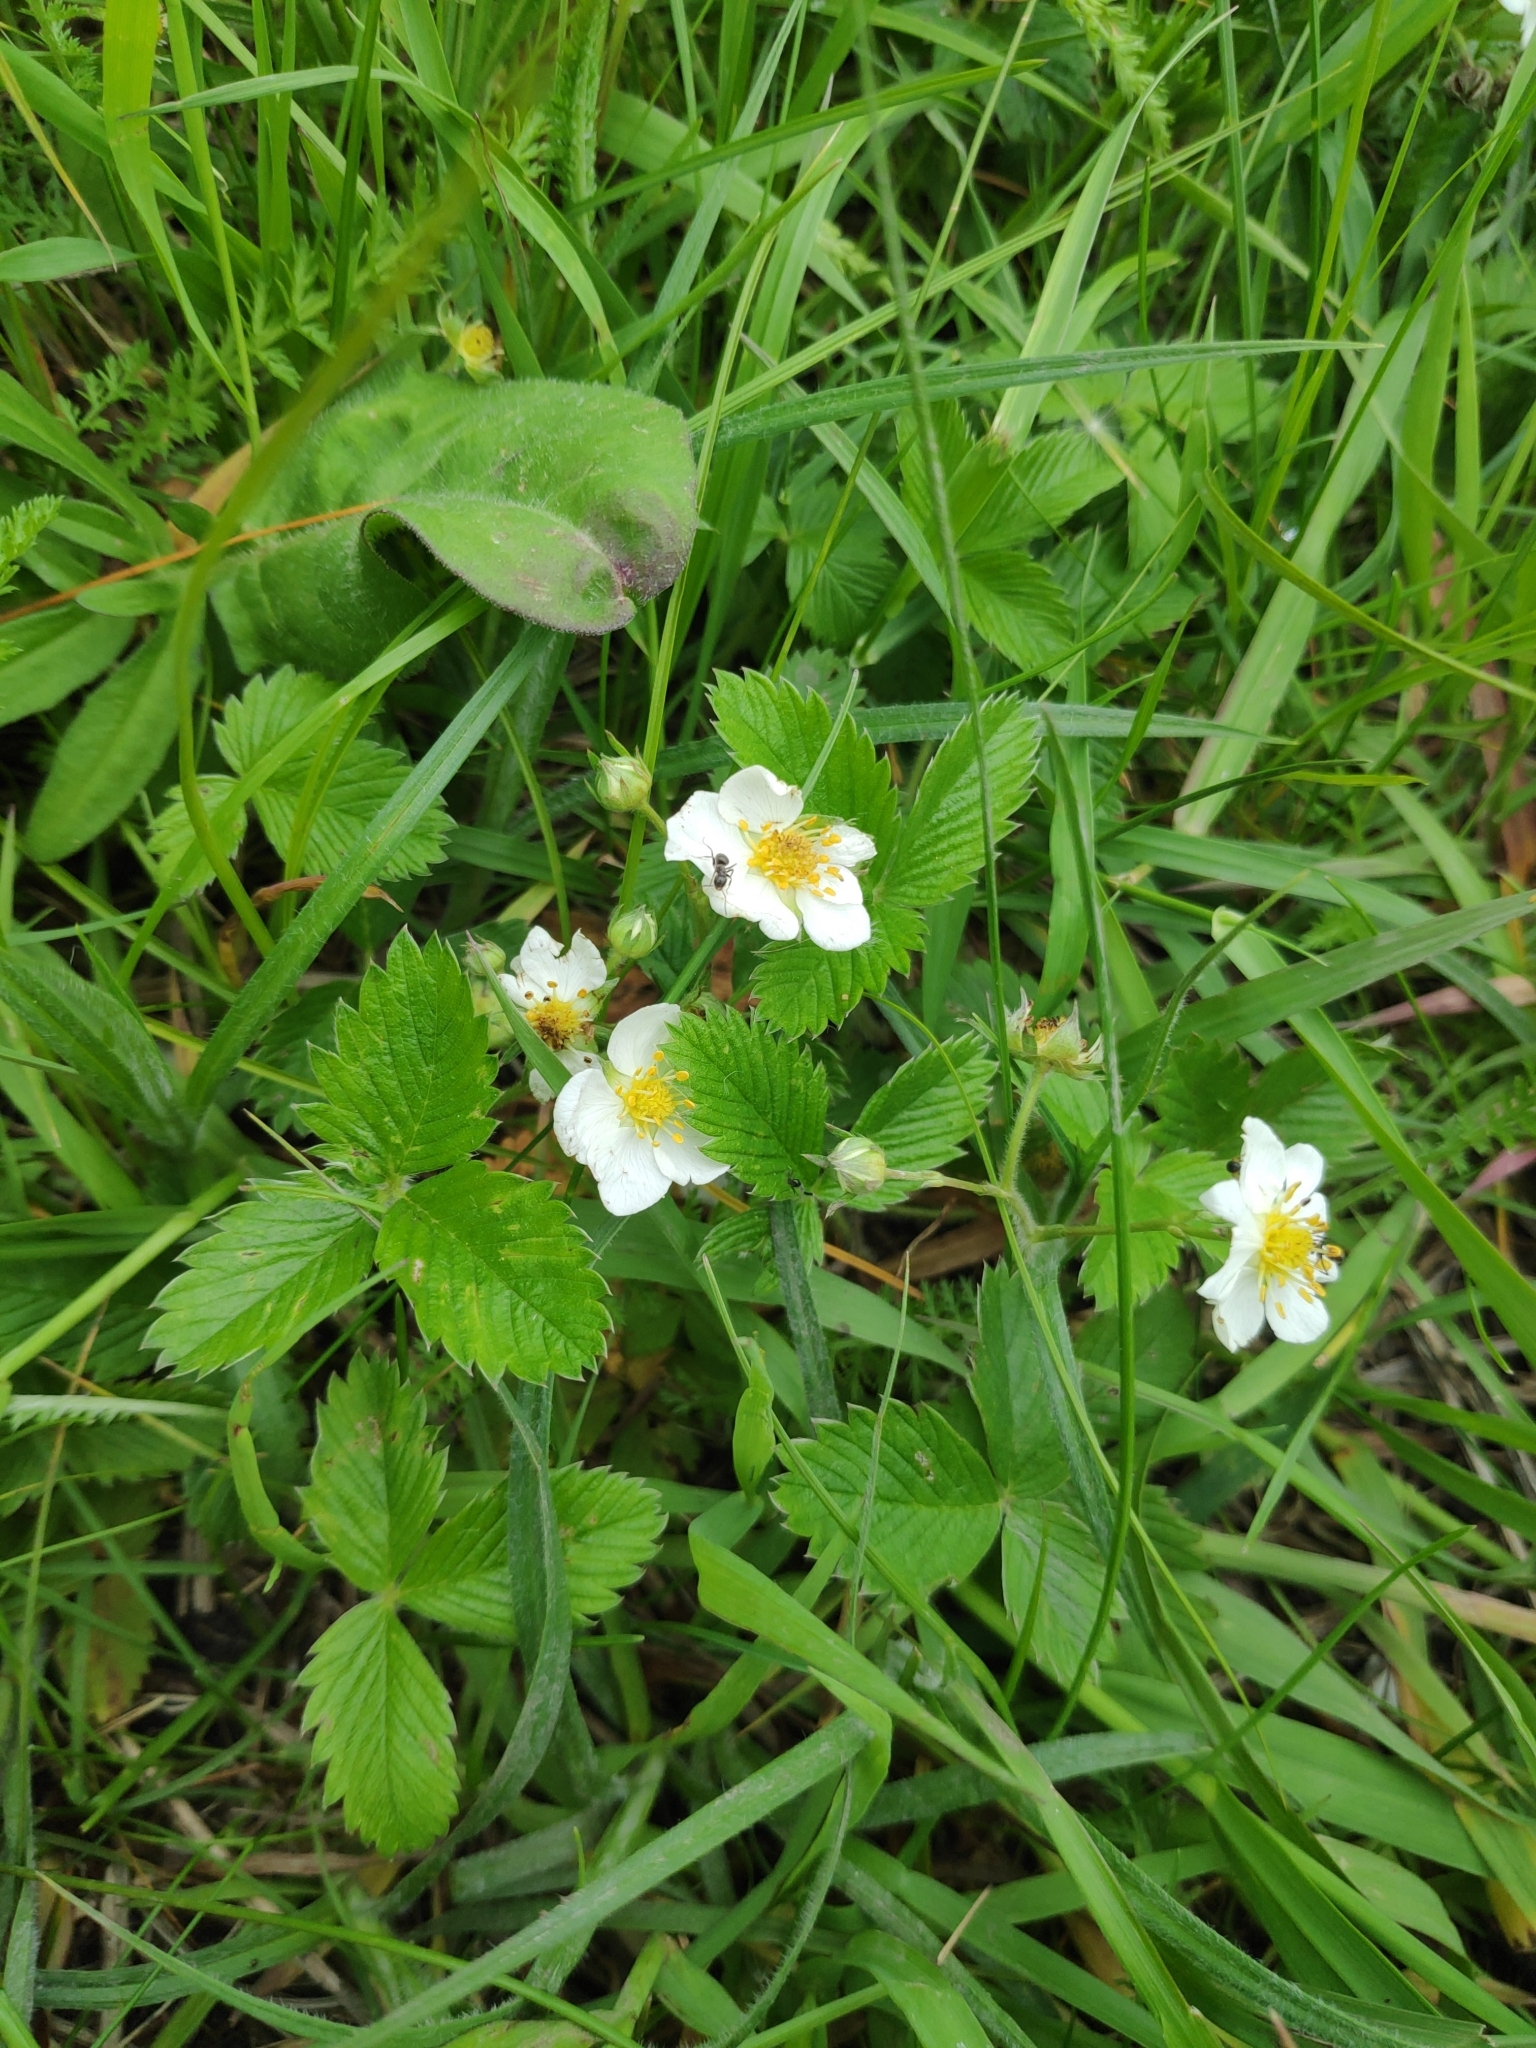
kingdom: Plantae
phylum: Tracheophyta
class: Magnoliopsida
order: Rosales
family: Rosaceae
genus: Fragaria
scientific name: Fragaria viridis
